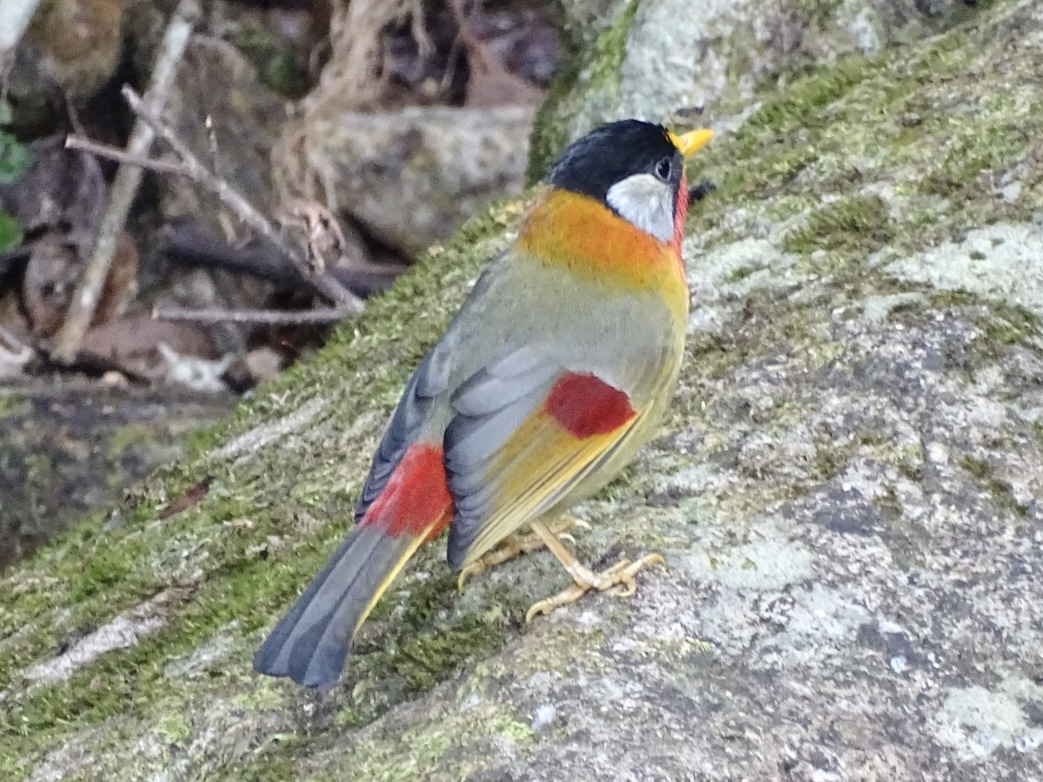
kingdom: Animalia
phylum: Chordata
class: Aves
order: Passeriformes
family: Leiothrichidae
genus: Leiothrix
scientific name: Leiothrix argentauris
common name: Silver-eared mesia
